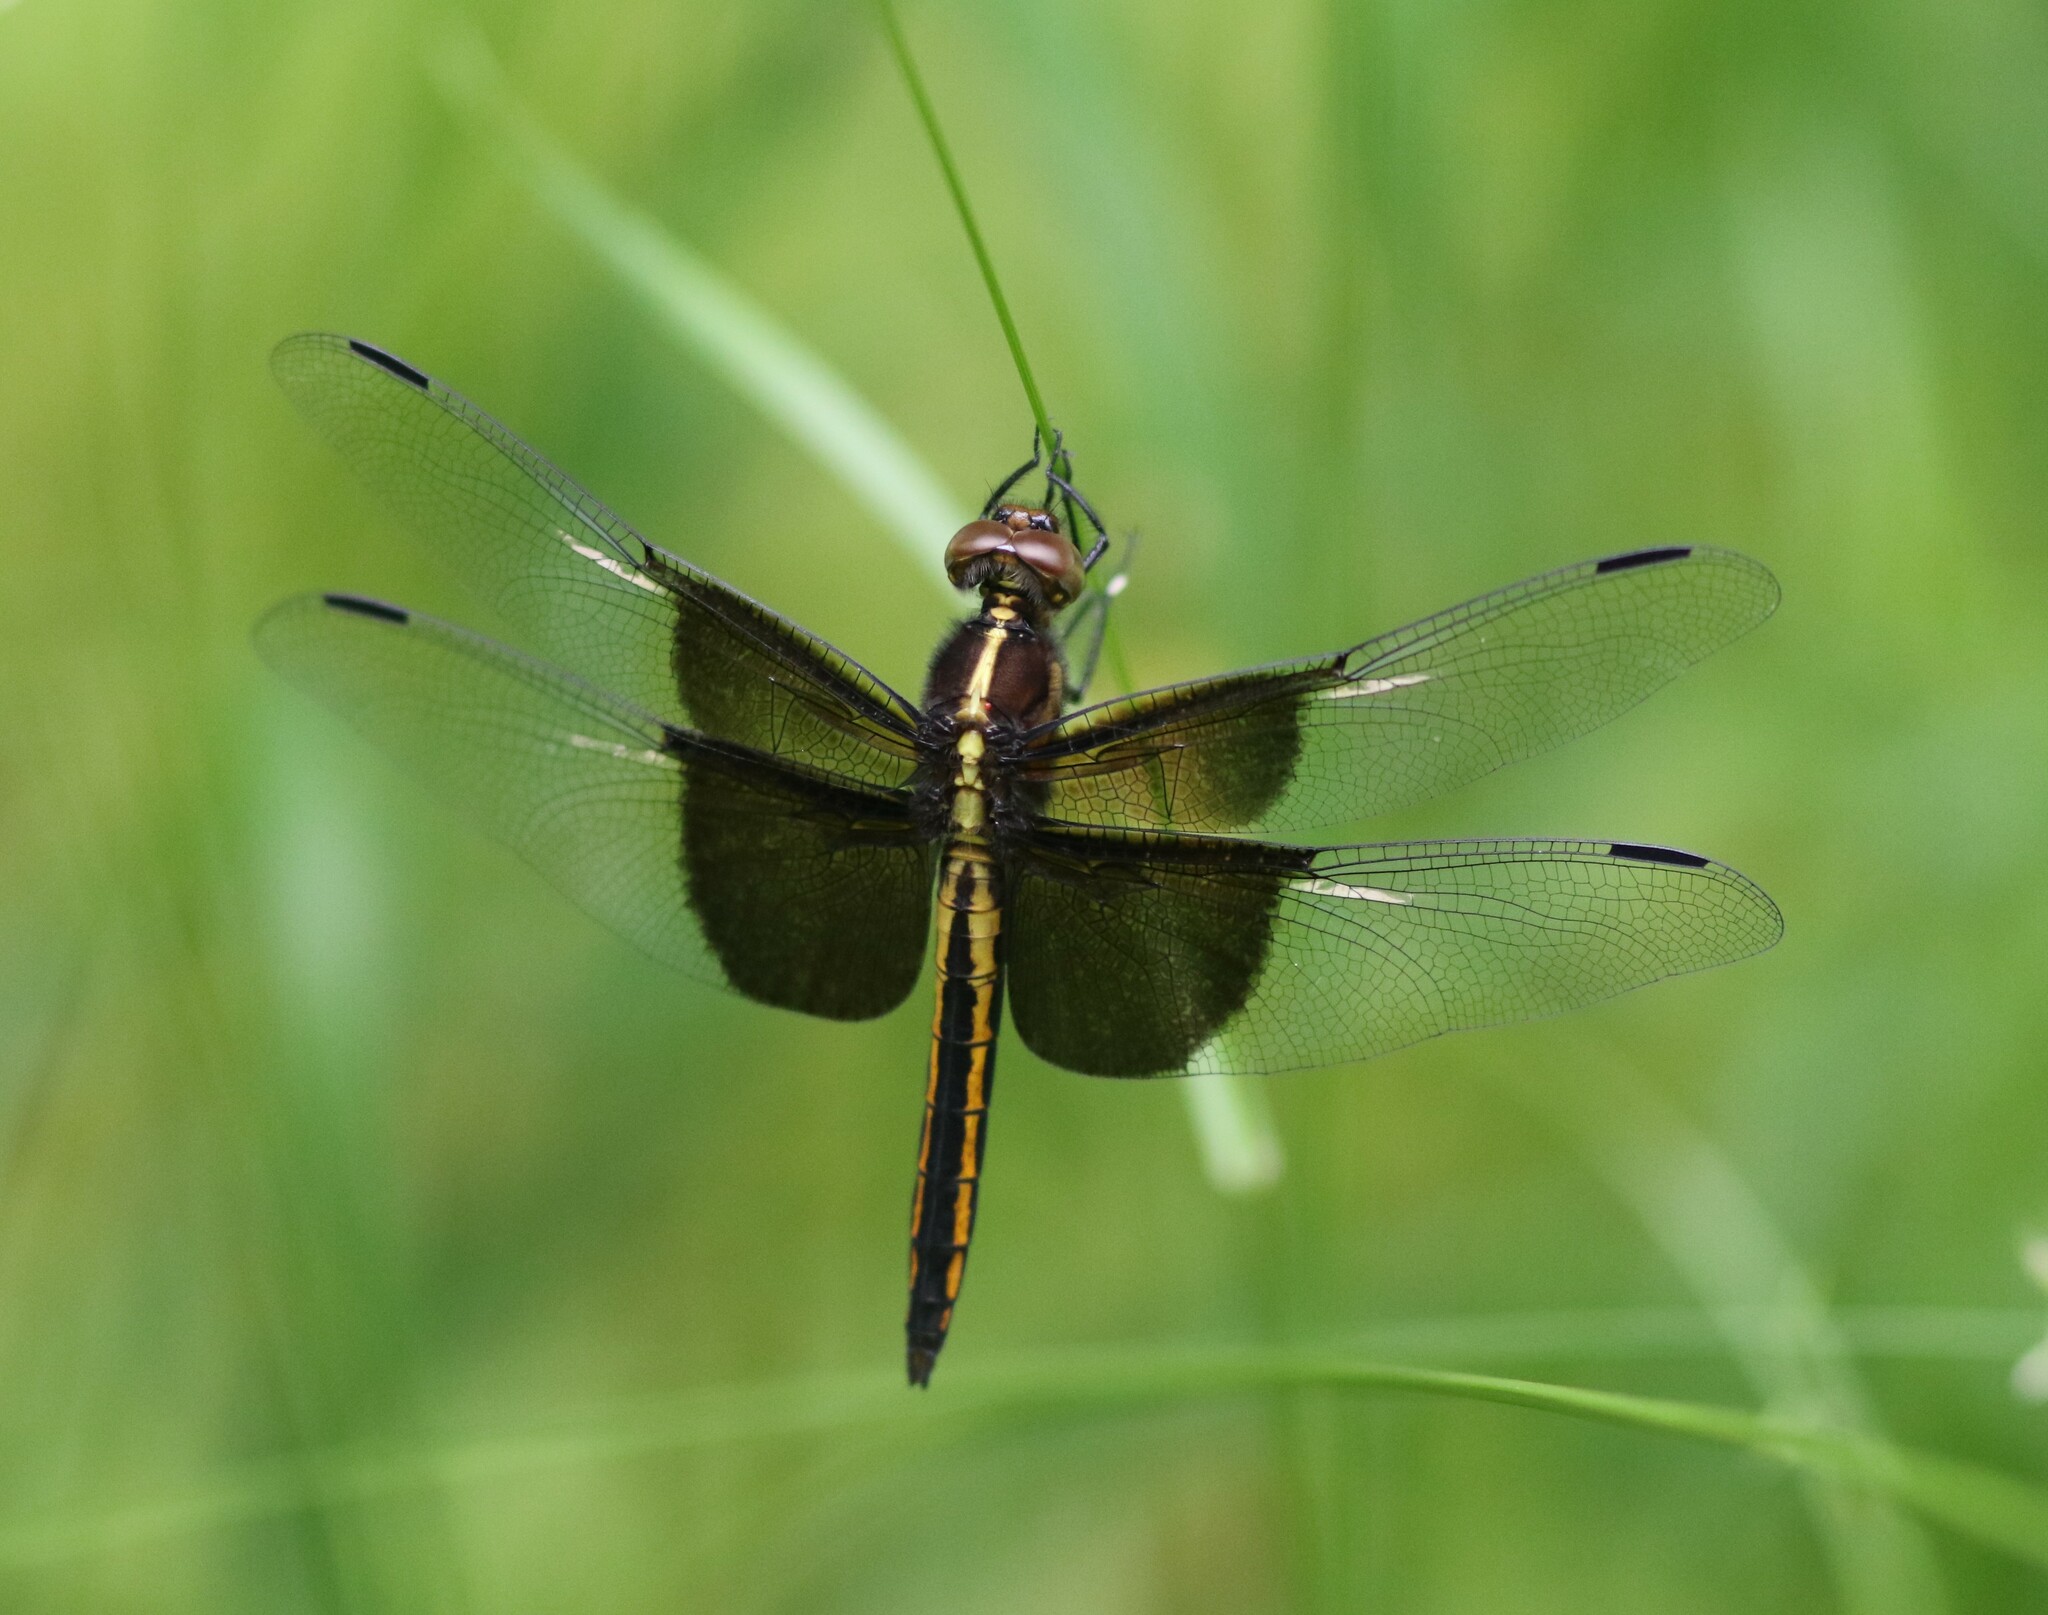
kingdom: Animalia
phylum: Arthropoda
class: Insecta
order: Odonata
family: Libellulidae
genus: Libellula
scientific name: Libellula luctuosa
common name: Widow skimmer
